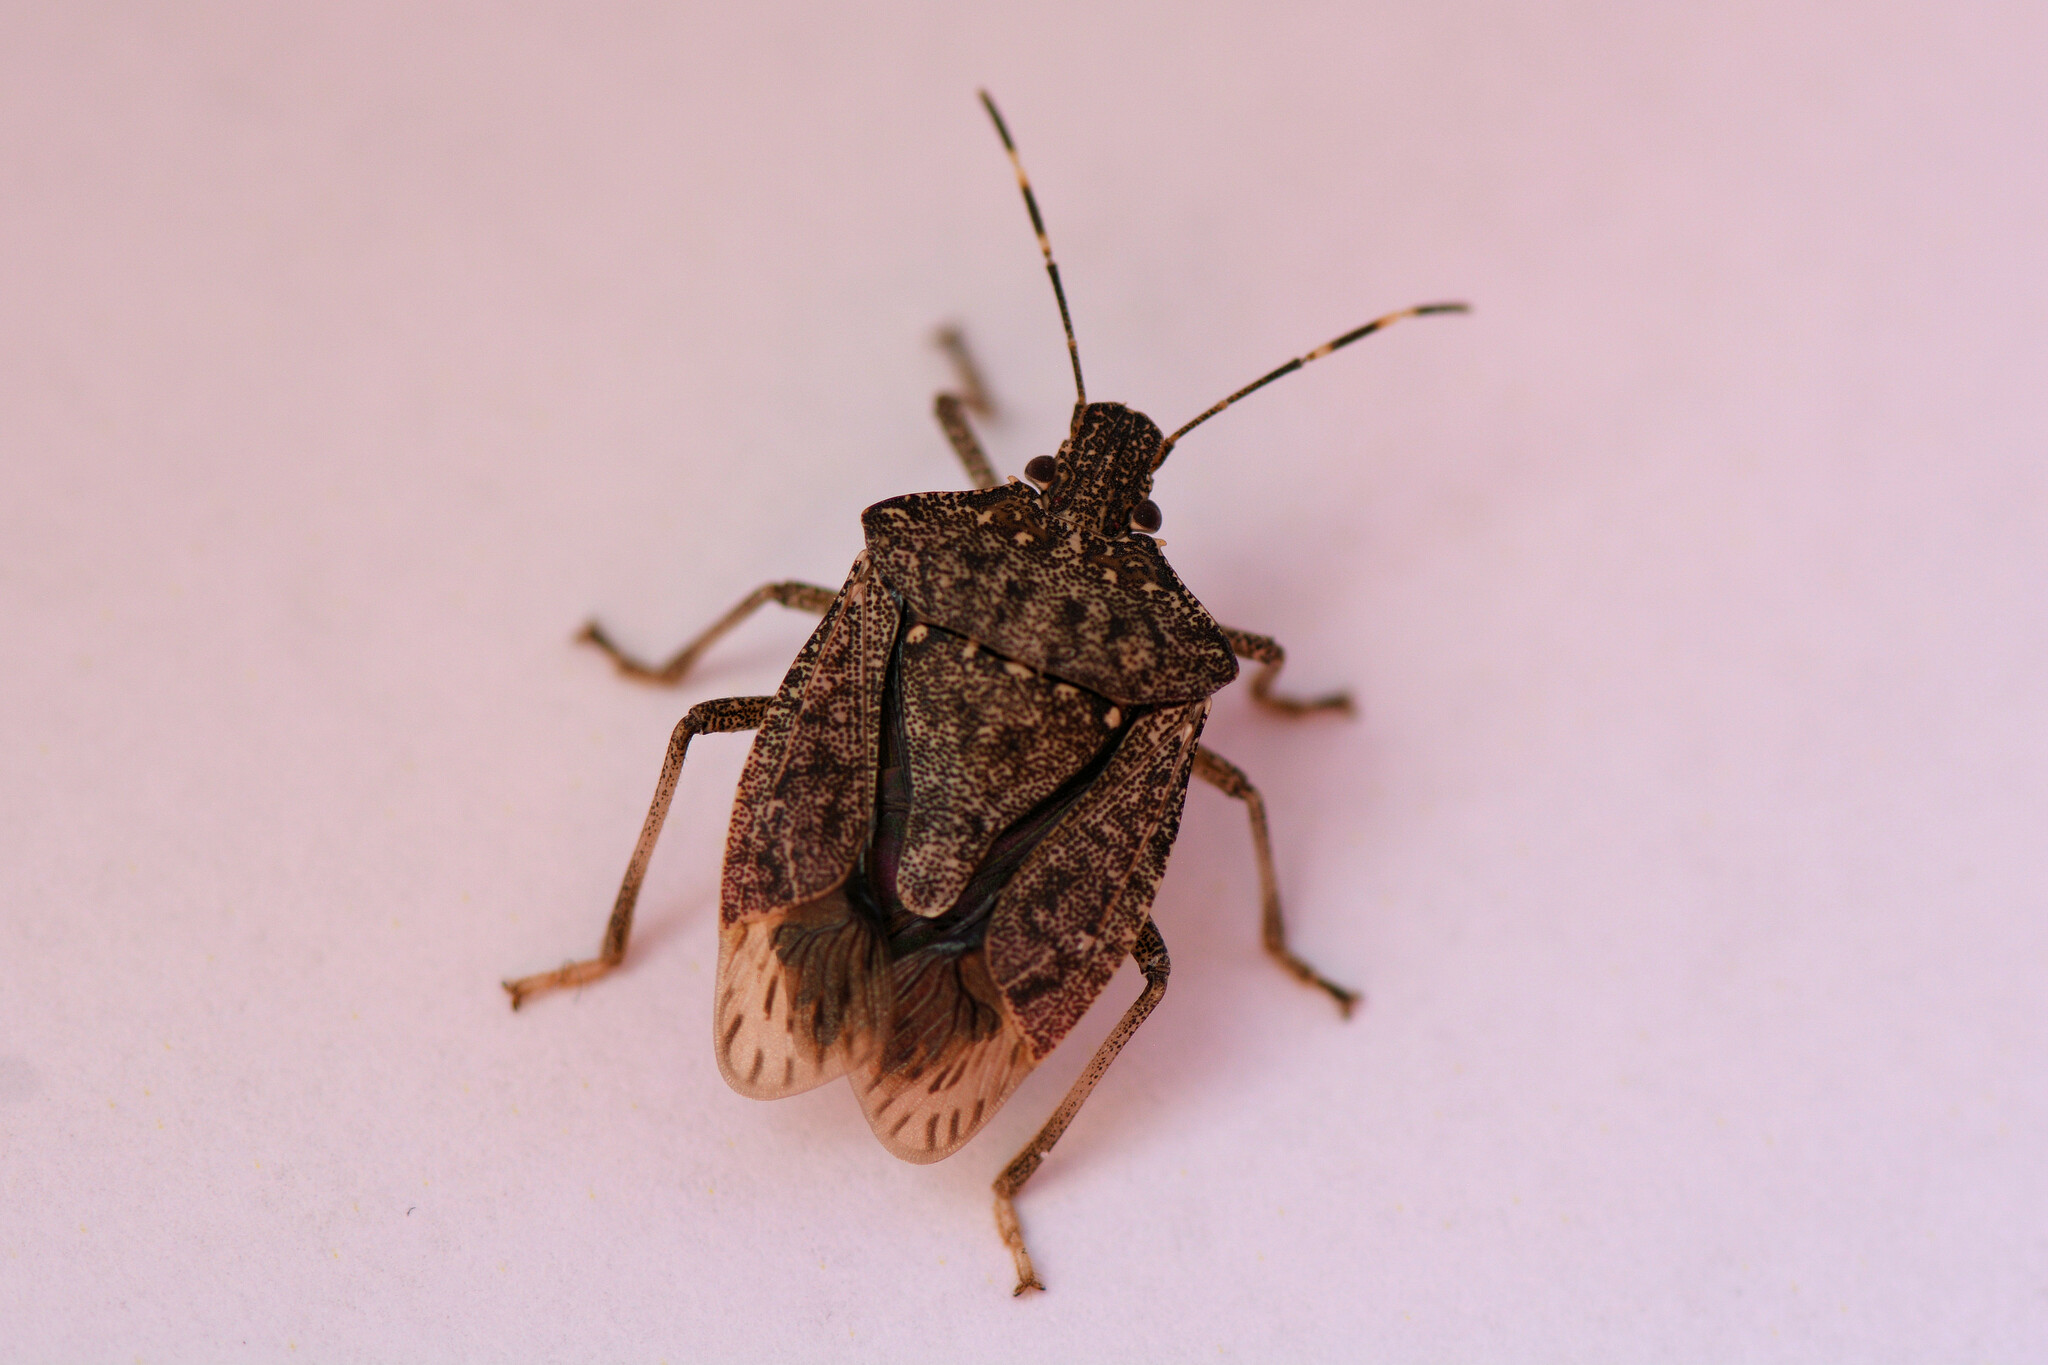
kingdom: Animalia
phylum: Arthropoda
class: Insecta
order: Hemiptera
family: Pentatomidae
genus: Halyomorpha
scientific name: Halyomorpha halys
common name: Brown marmorated stink bug
